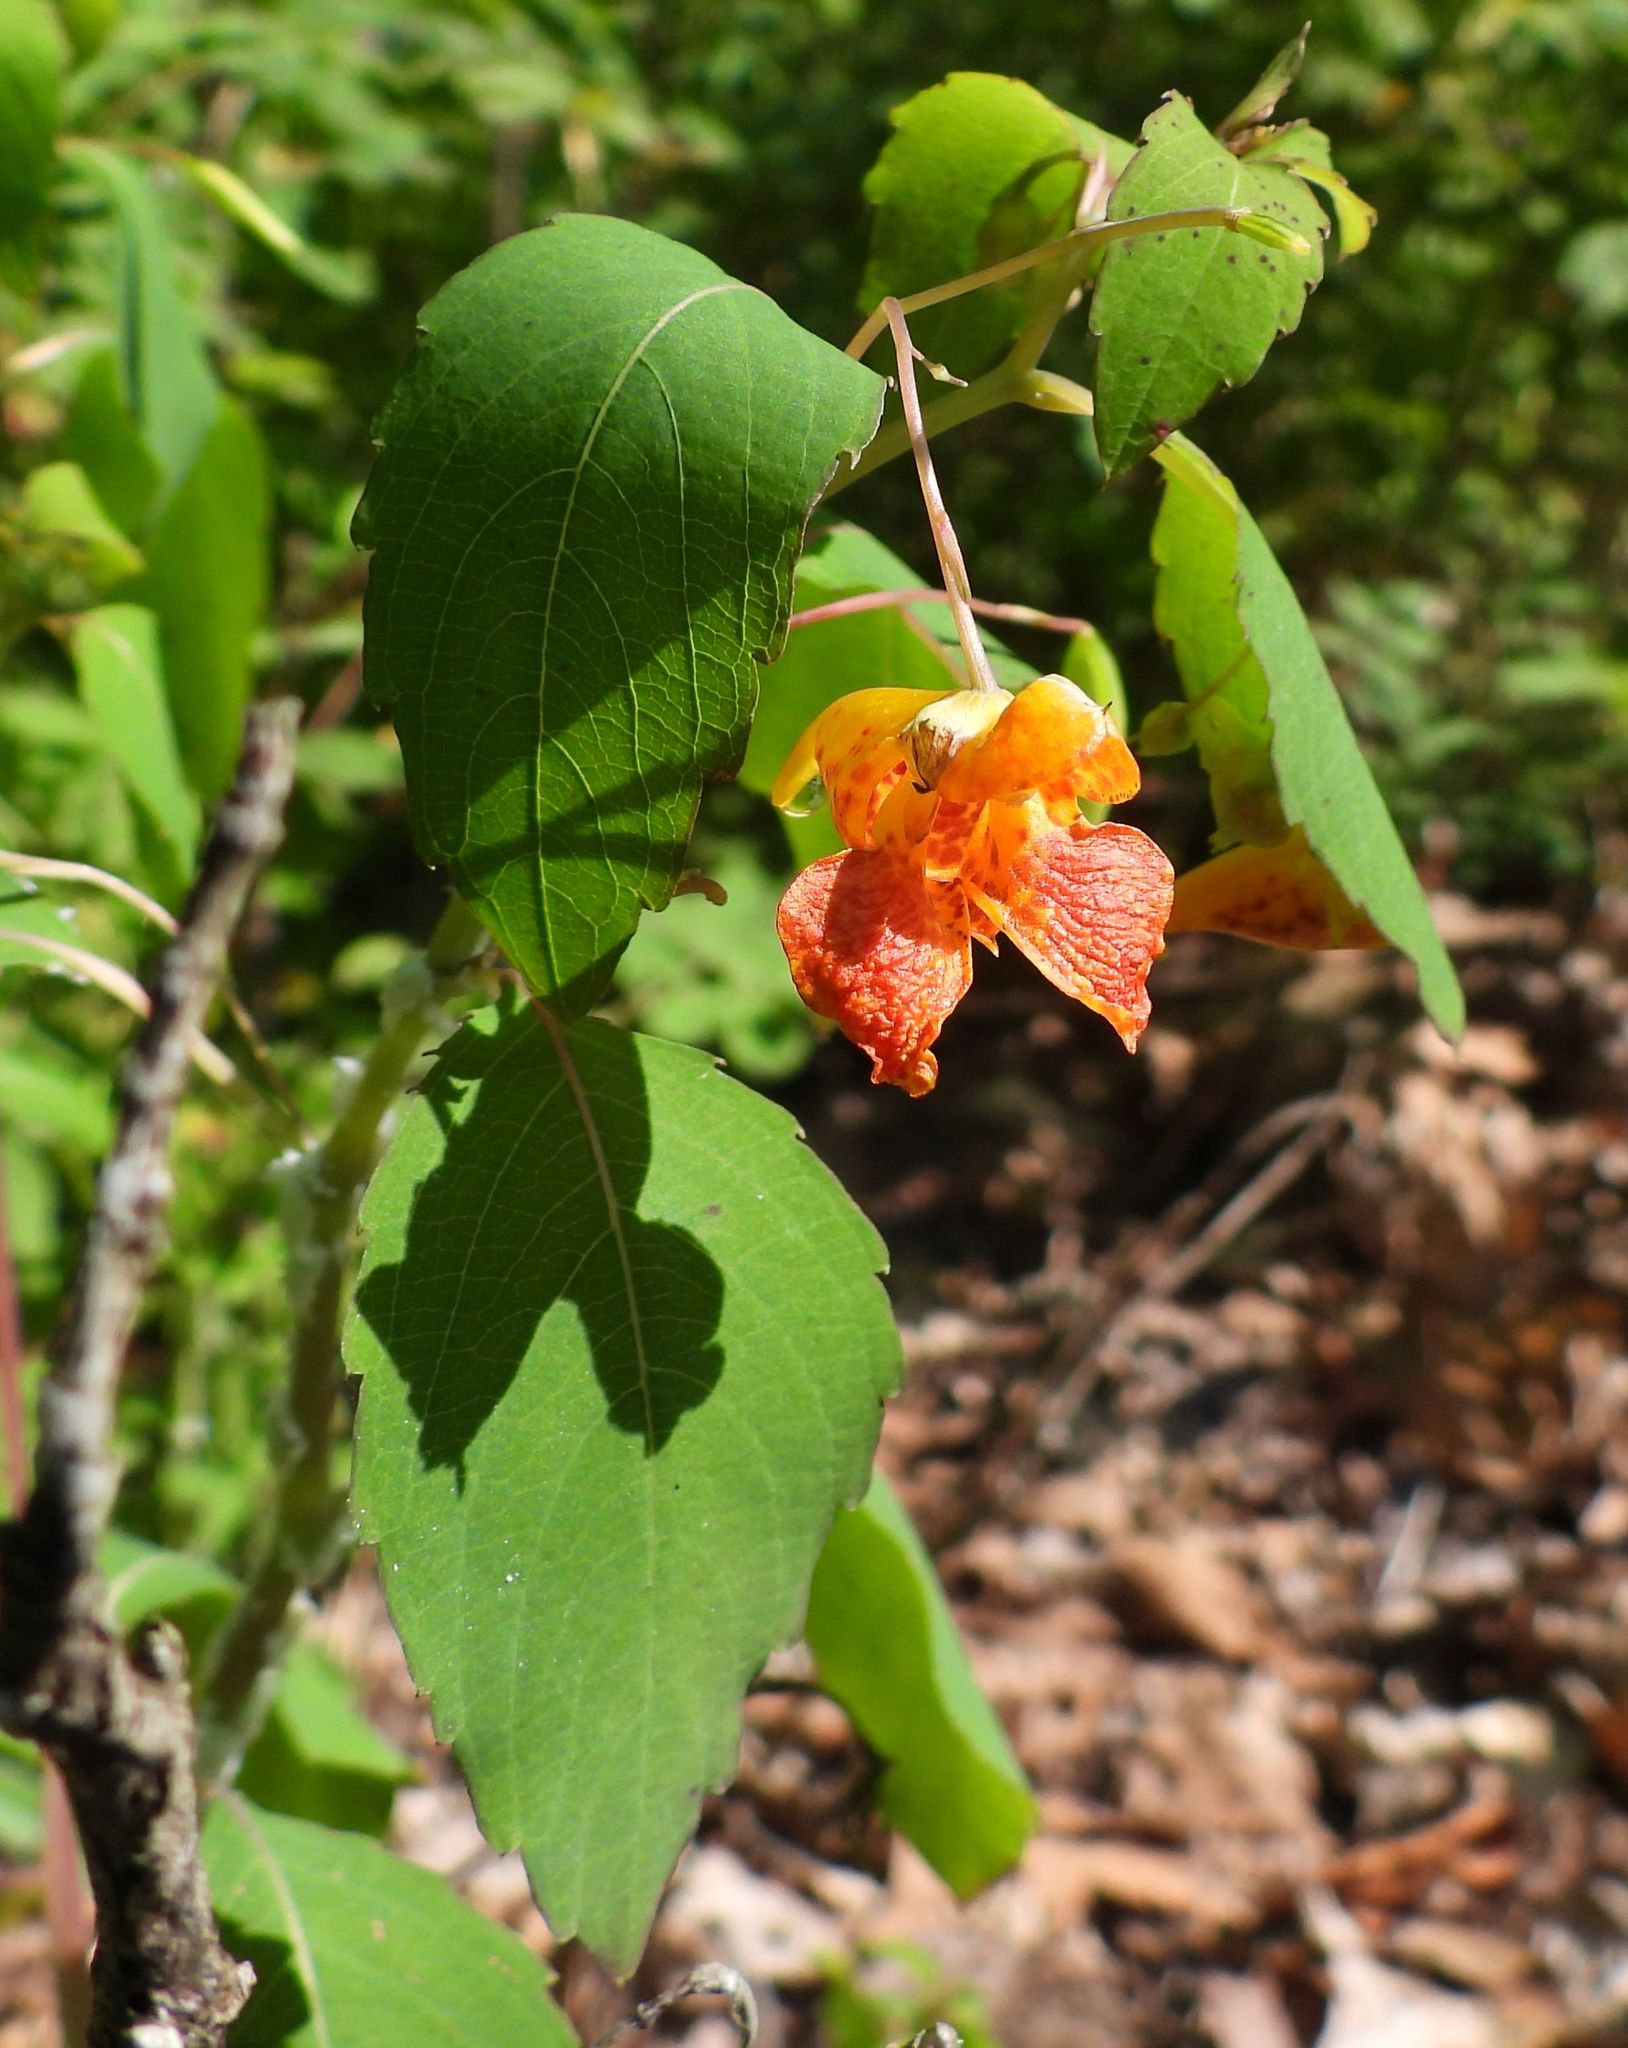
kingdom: Plantae
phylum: Tracheophyta
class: Magnoliopsida
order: Ericales
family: Balsaminaceae
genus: Impatiens
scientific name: Impatiens capensis
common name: Orange balsam
